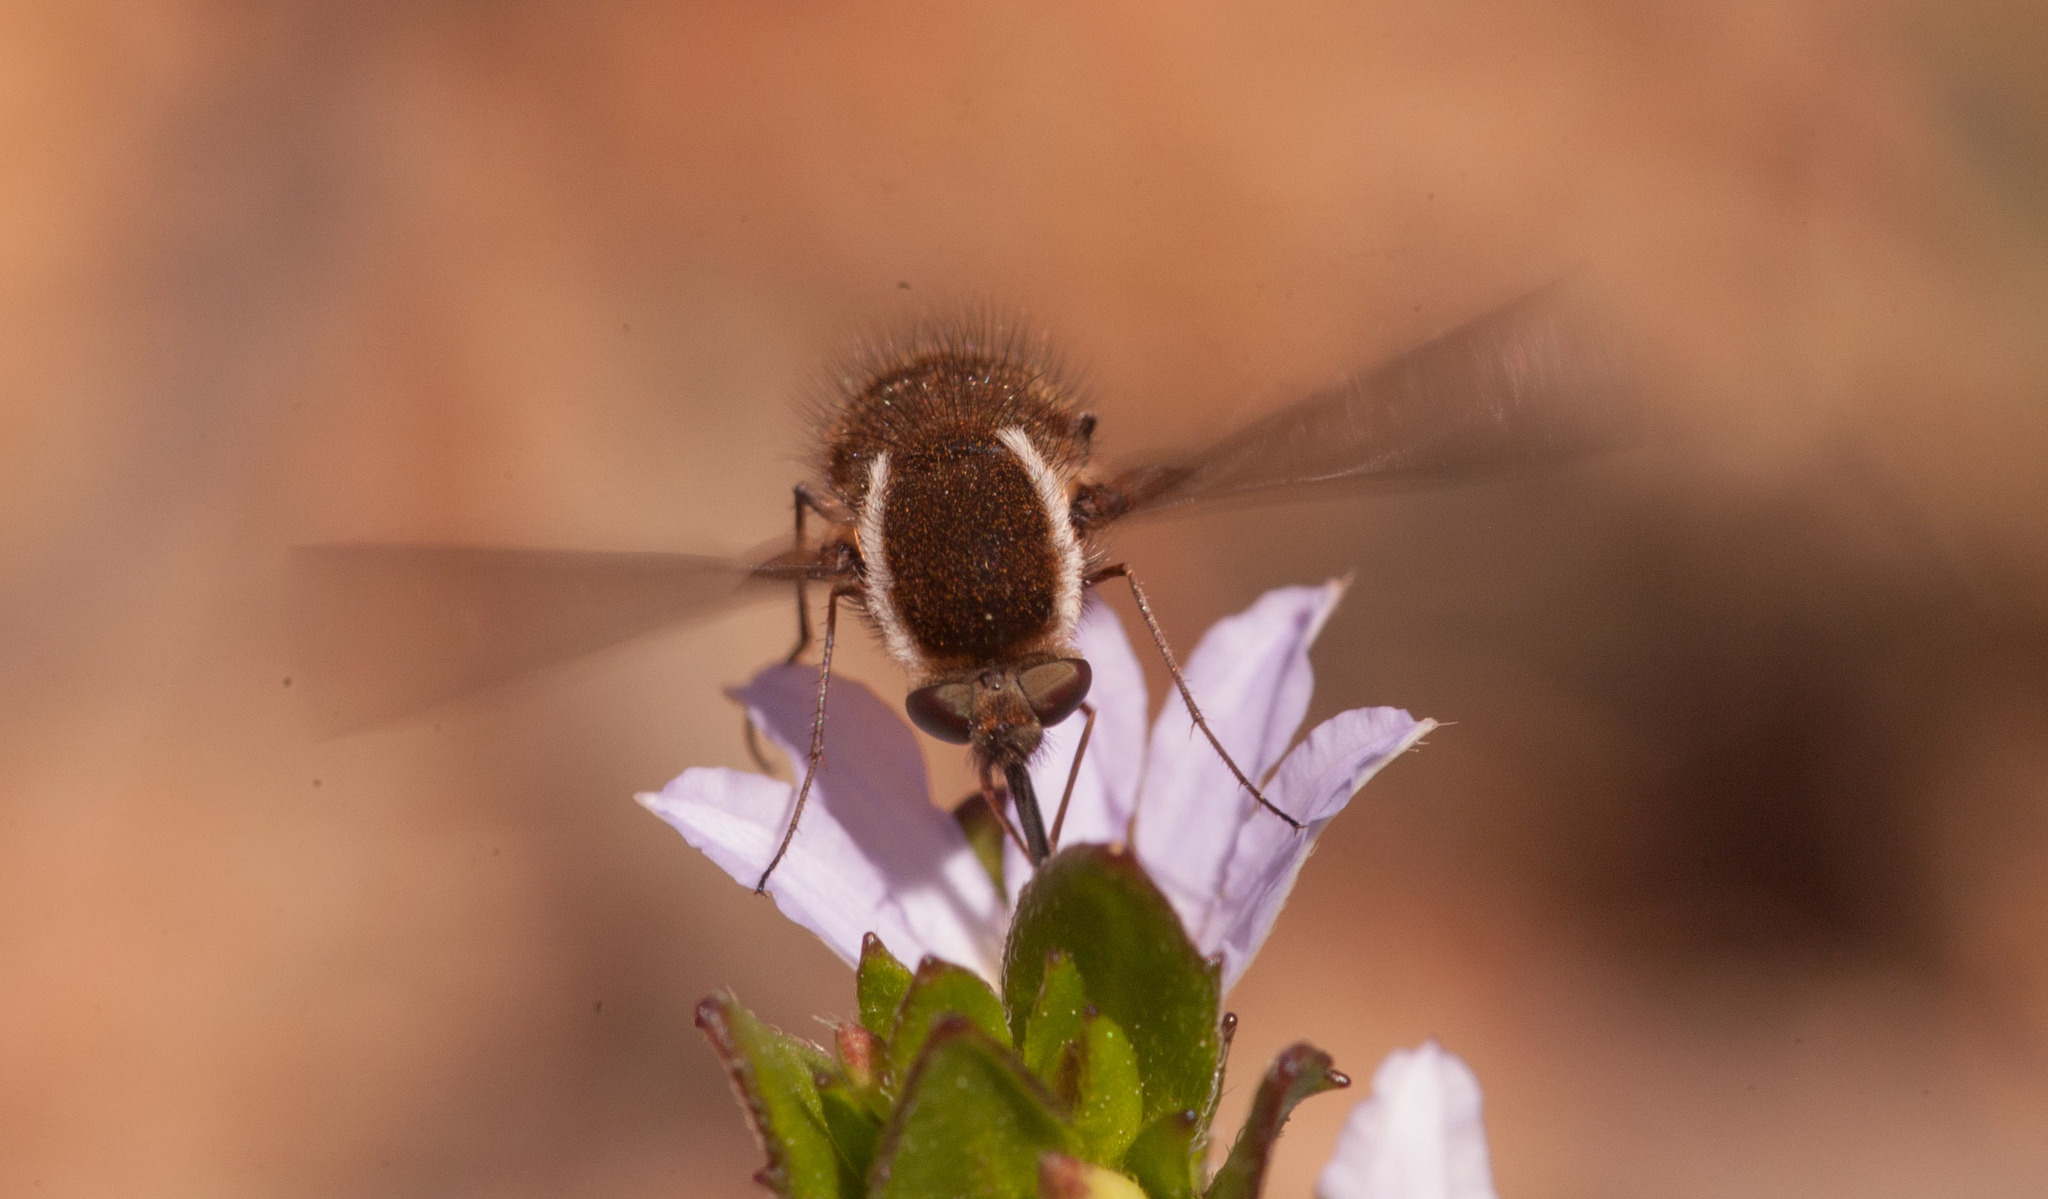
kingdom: Animalia
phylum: Arthropoda
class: Insecta
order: Diptera
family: Bombyliidae
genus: Staurostichus
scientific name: Staurostichus
